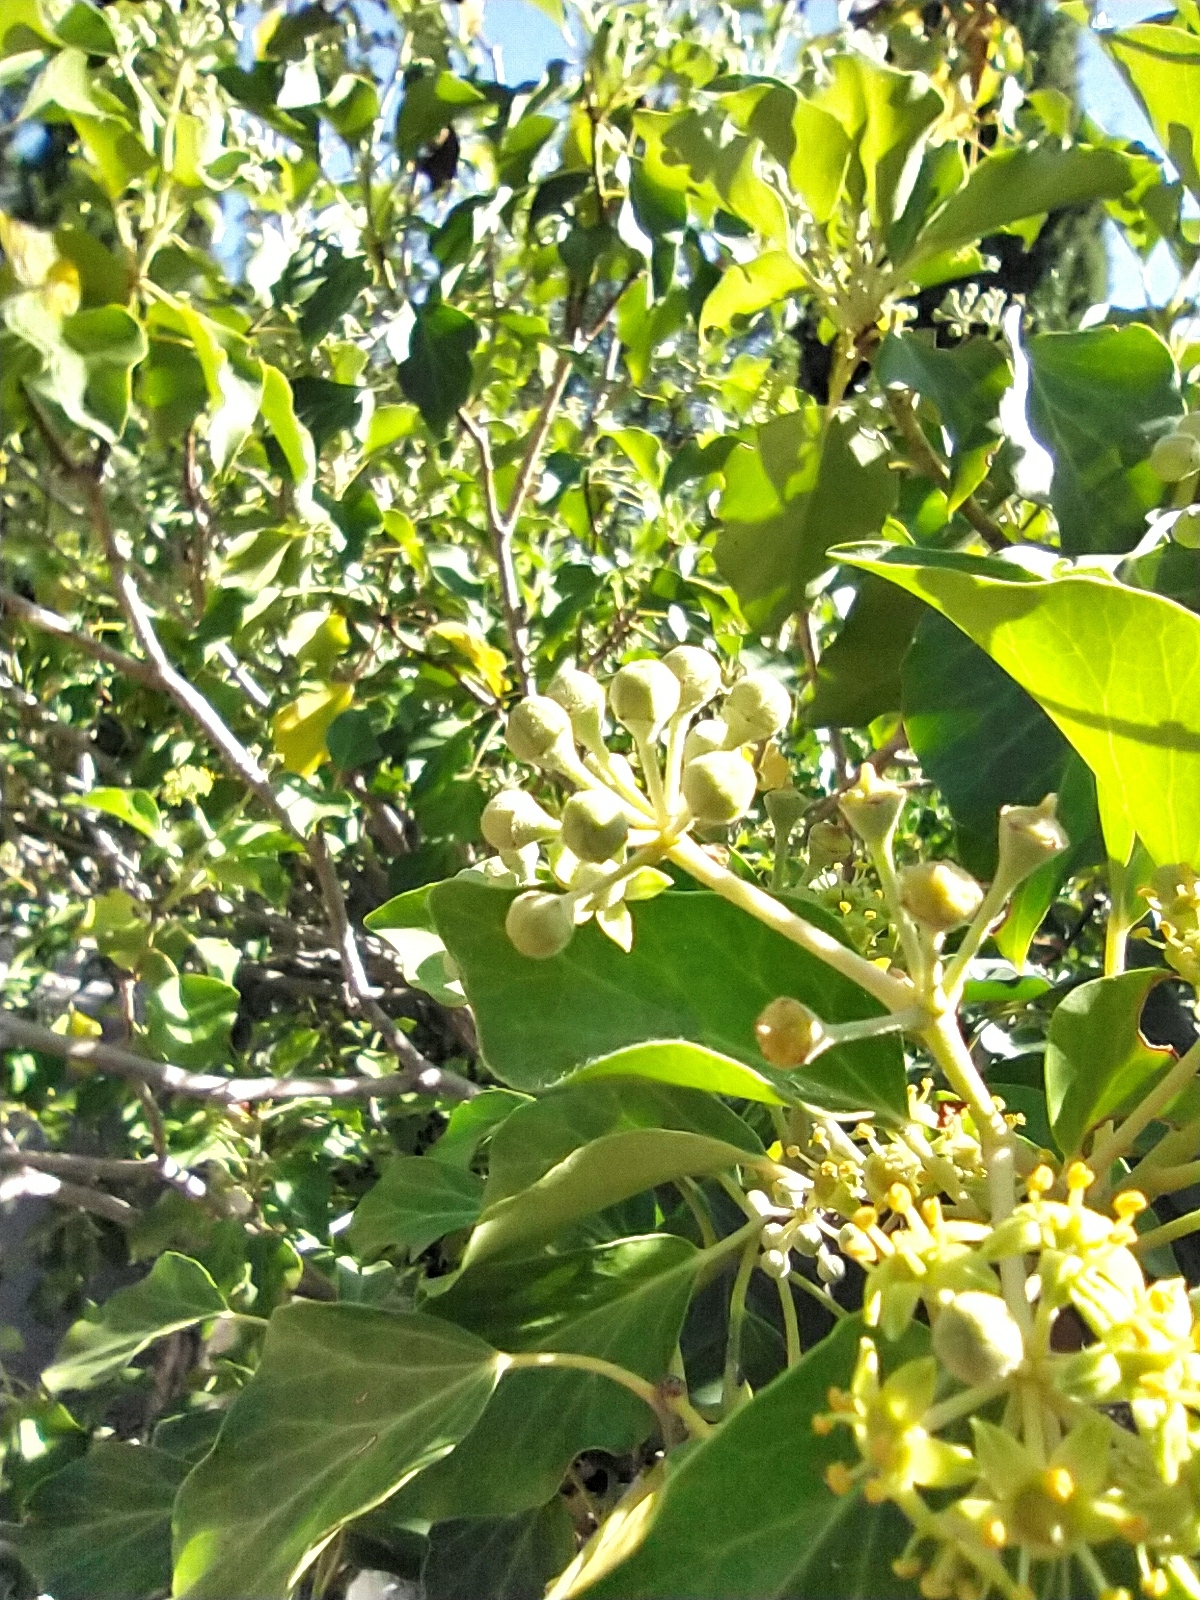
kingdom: Plantae
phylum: Tracheophyta
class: Magnoliopsida
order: Apiales
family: Araliaceae
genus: Hedera
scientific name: Hedera helix
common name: Ivy
